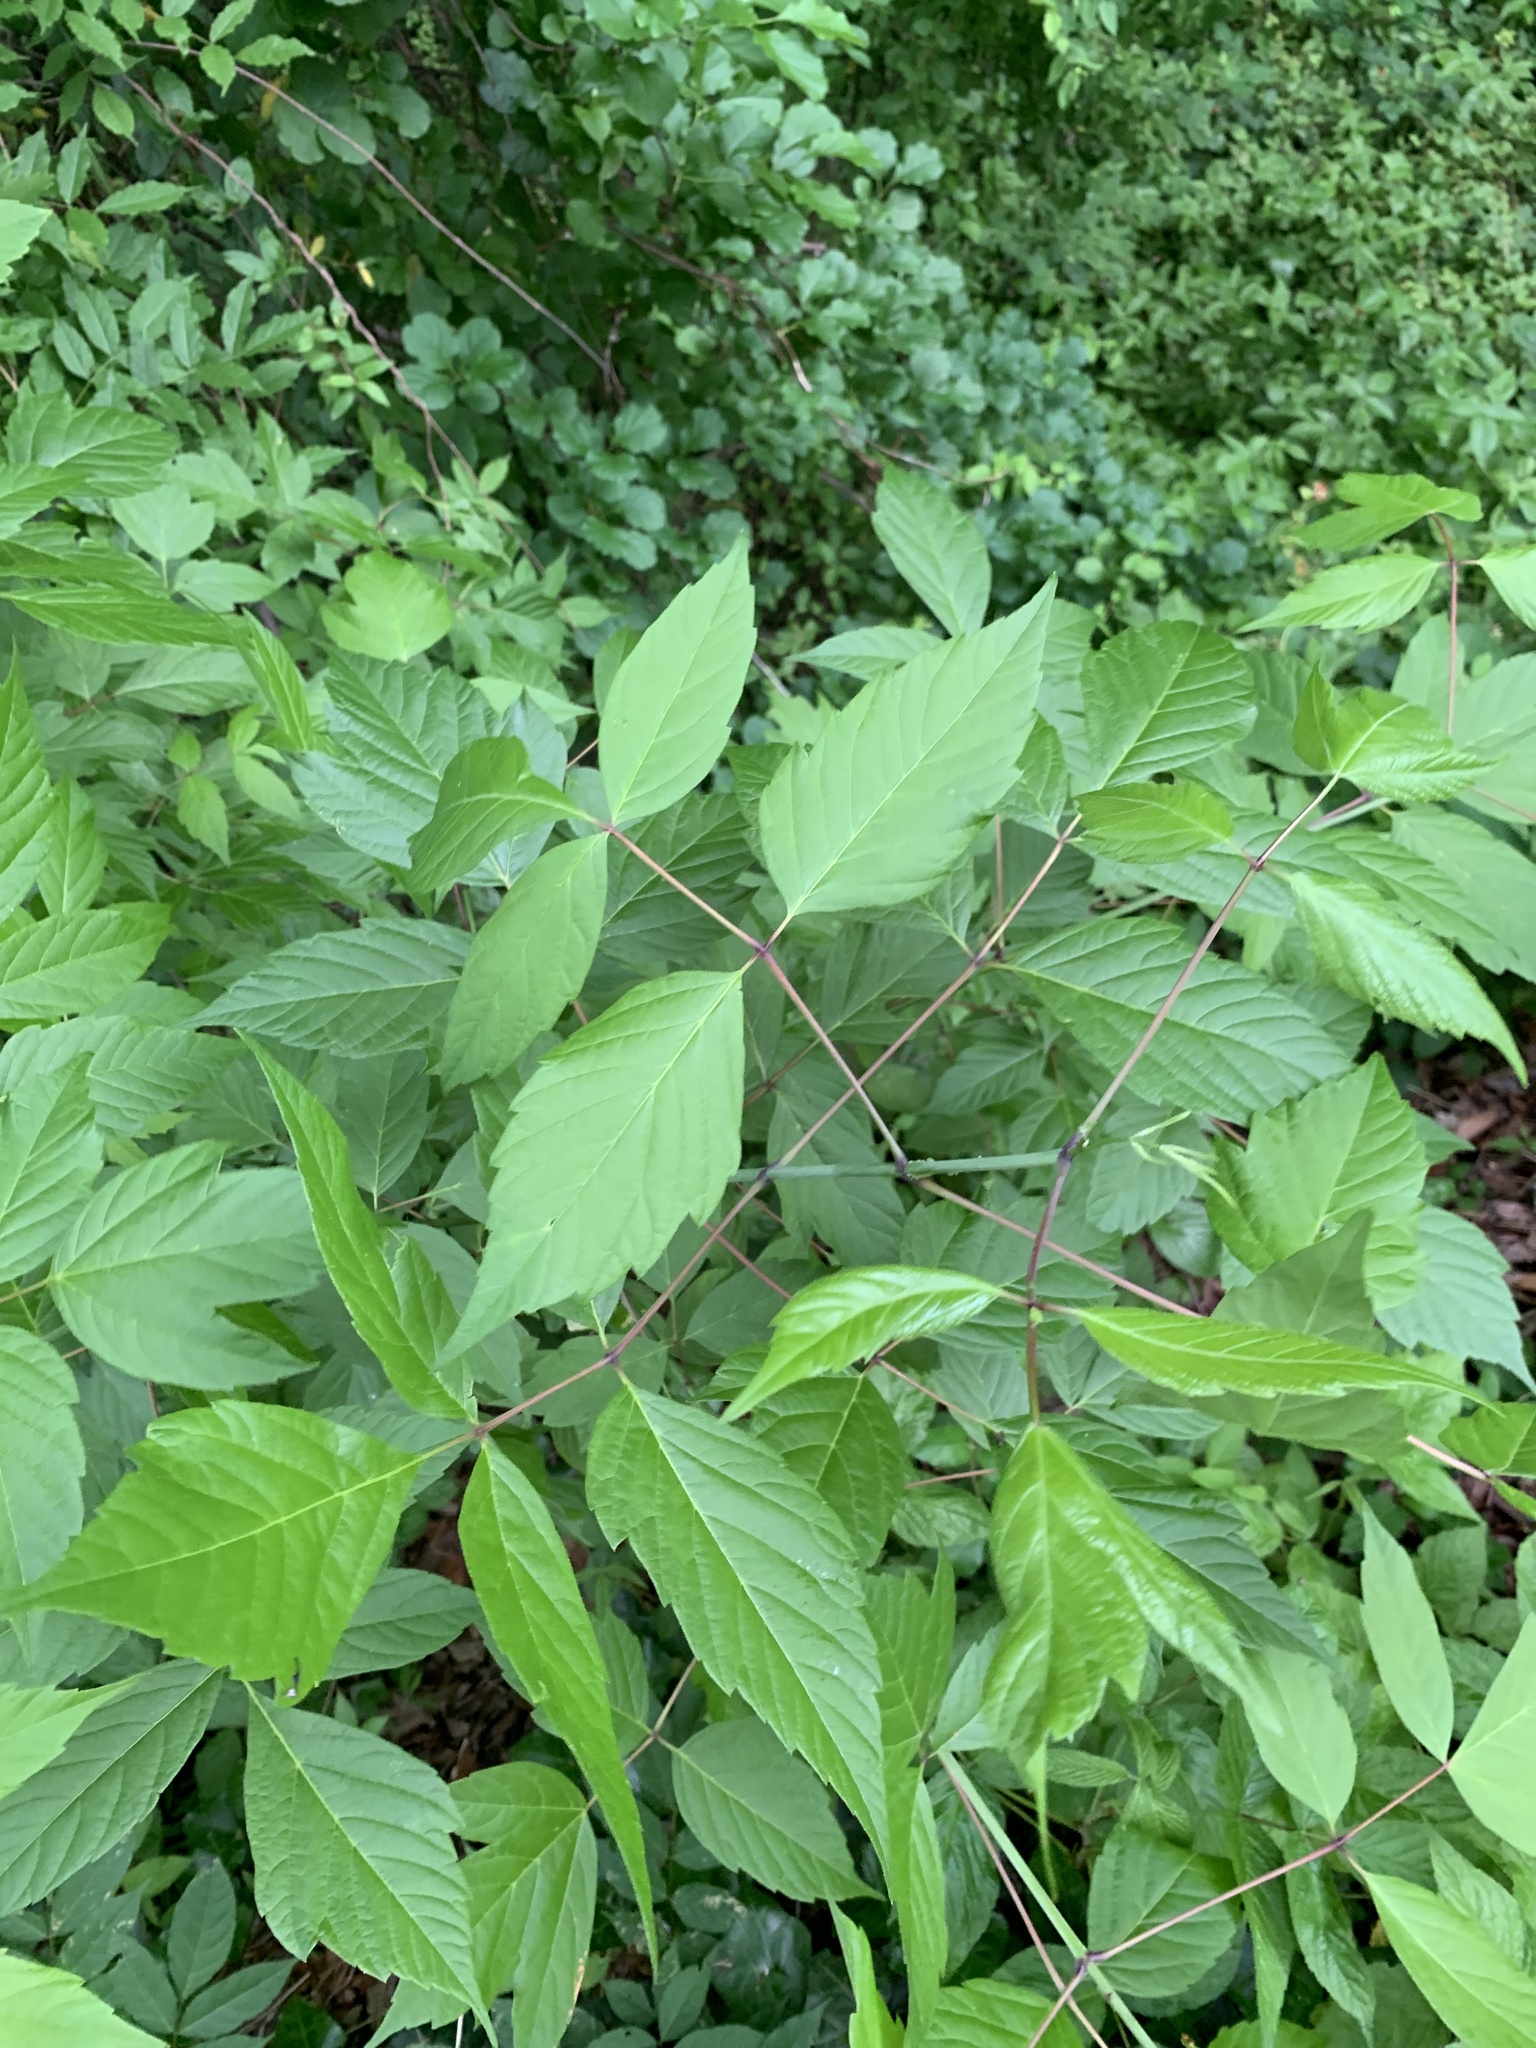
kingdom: Plantae
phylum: Tracheophyta
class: Magnoliopsida
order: Sapindales
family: Sapindaceae
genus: Acer
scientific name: Acer negundo
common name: Ashleaf maple
